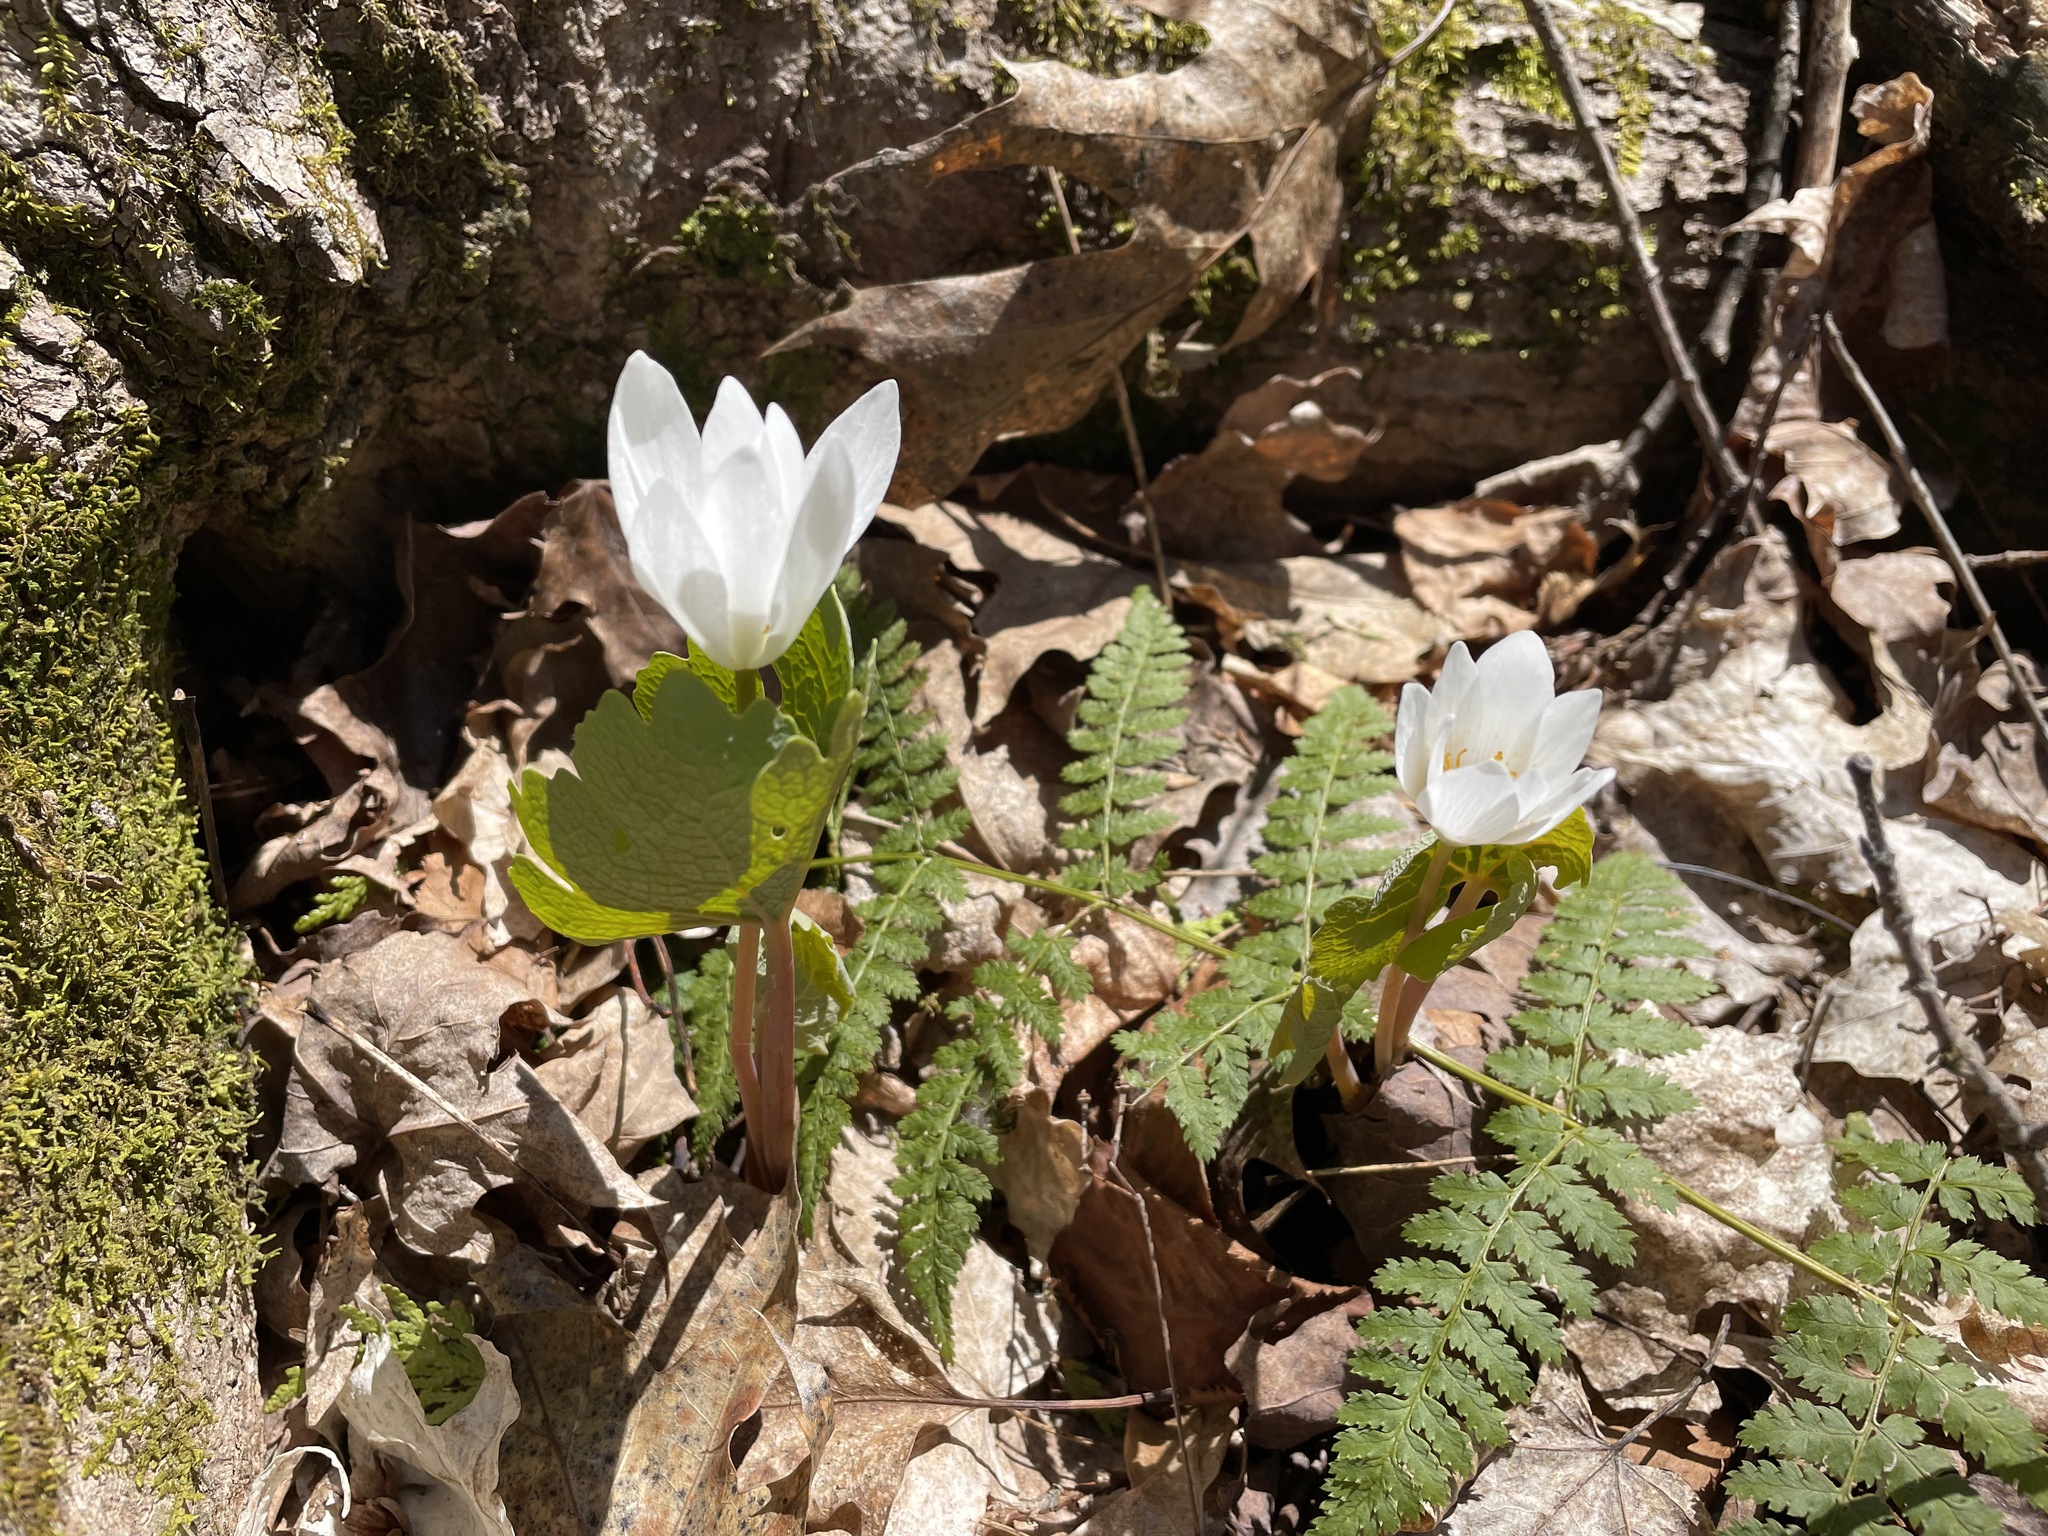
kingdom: Plantae
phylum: Tracheophyta
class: Magnoliopsida
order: Ranunculales
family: Papaveraceae
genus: Sanguinaria
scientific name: Sanguinaria canadensis
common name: Bloodroot
